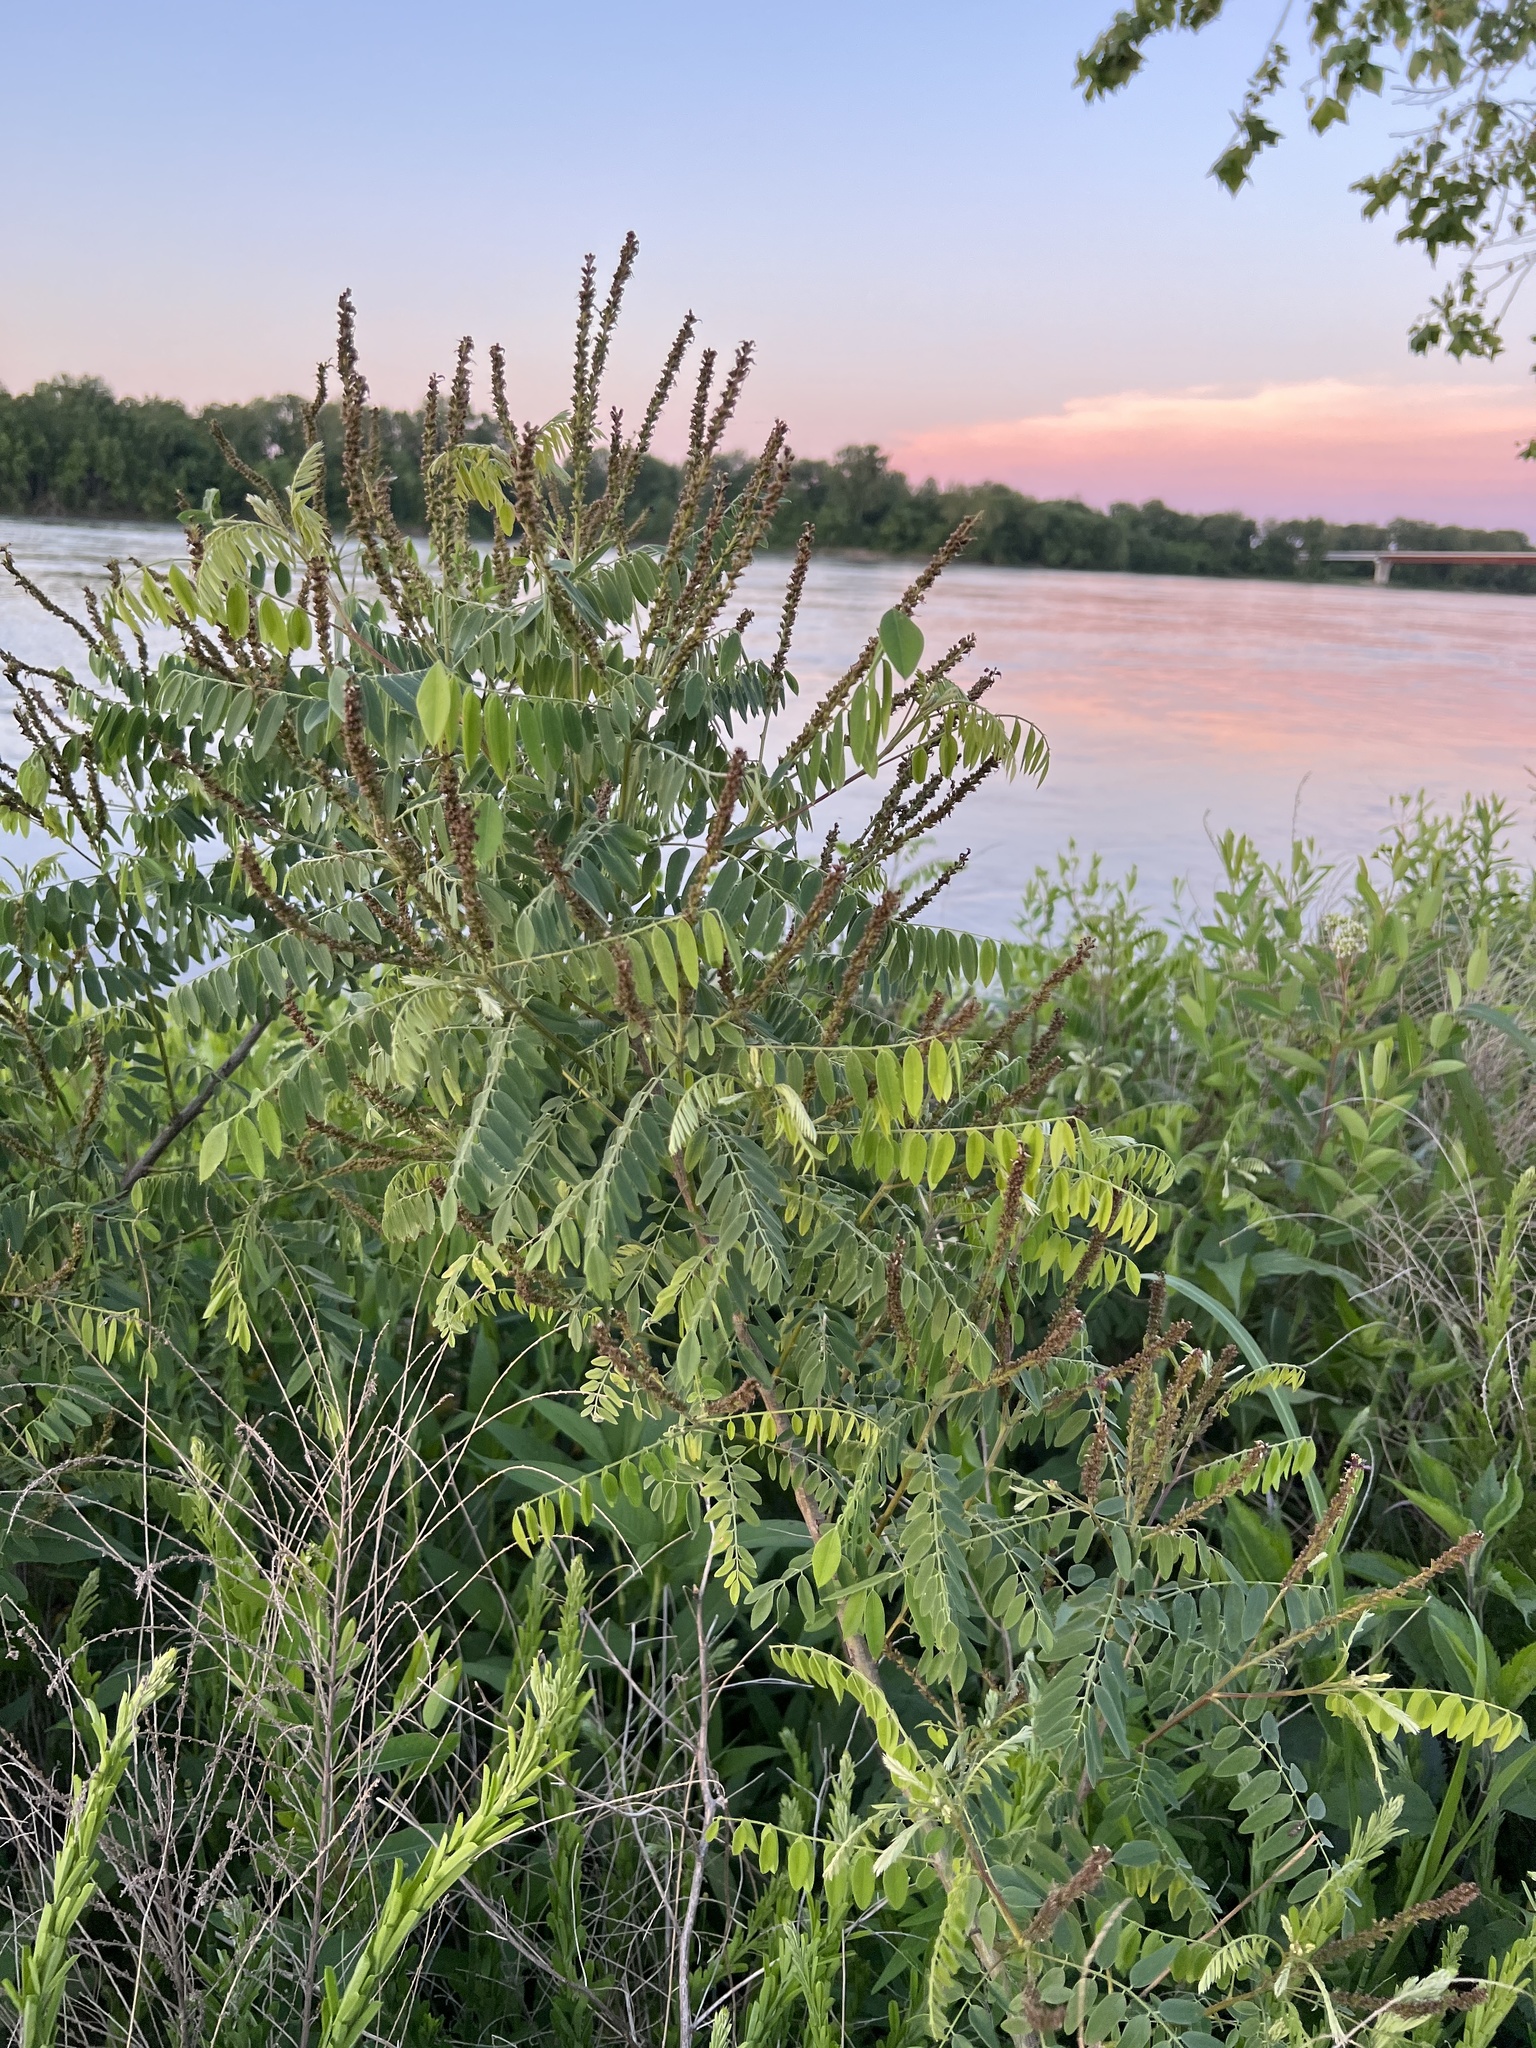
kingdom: Plantae
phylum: Tracheophyta
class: Magnoliopsida
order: Fabales
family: Fabaceae
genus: Amorpha
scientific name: Amorpha fruticosa
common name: False indigo
